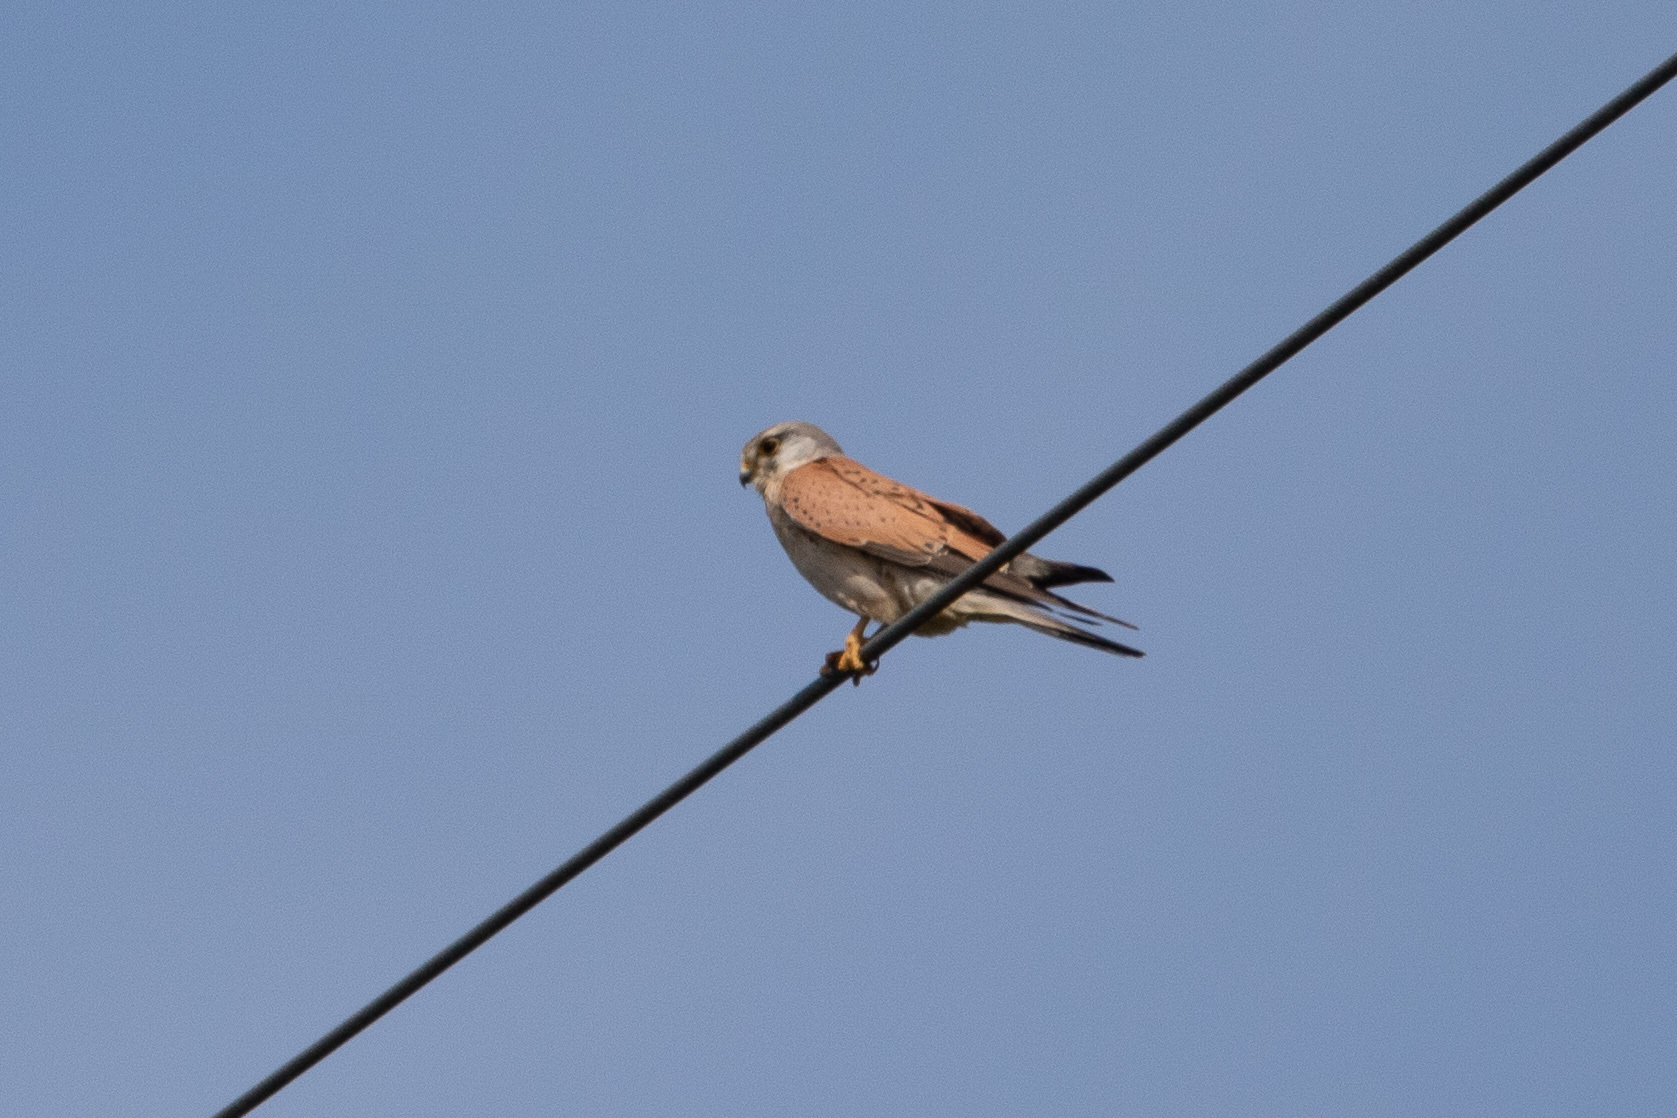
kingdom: Animalia
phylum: Chordata
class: Aves
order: Falconiformes
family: Falconidae
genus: Falco
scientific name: Falco tinnunculus
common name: Common kestrel
